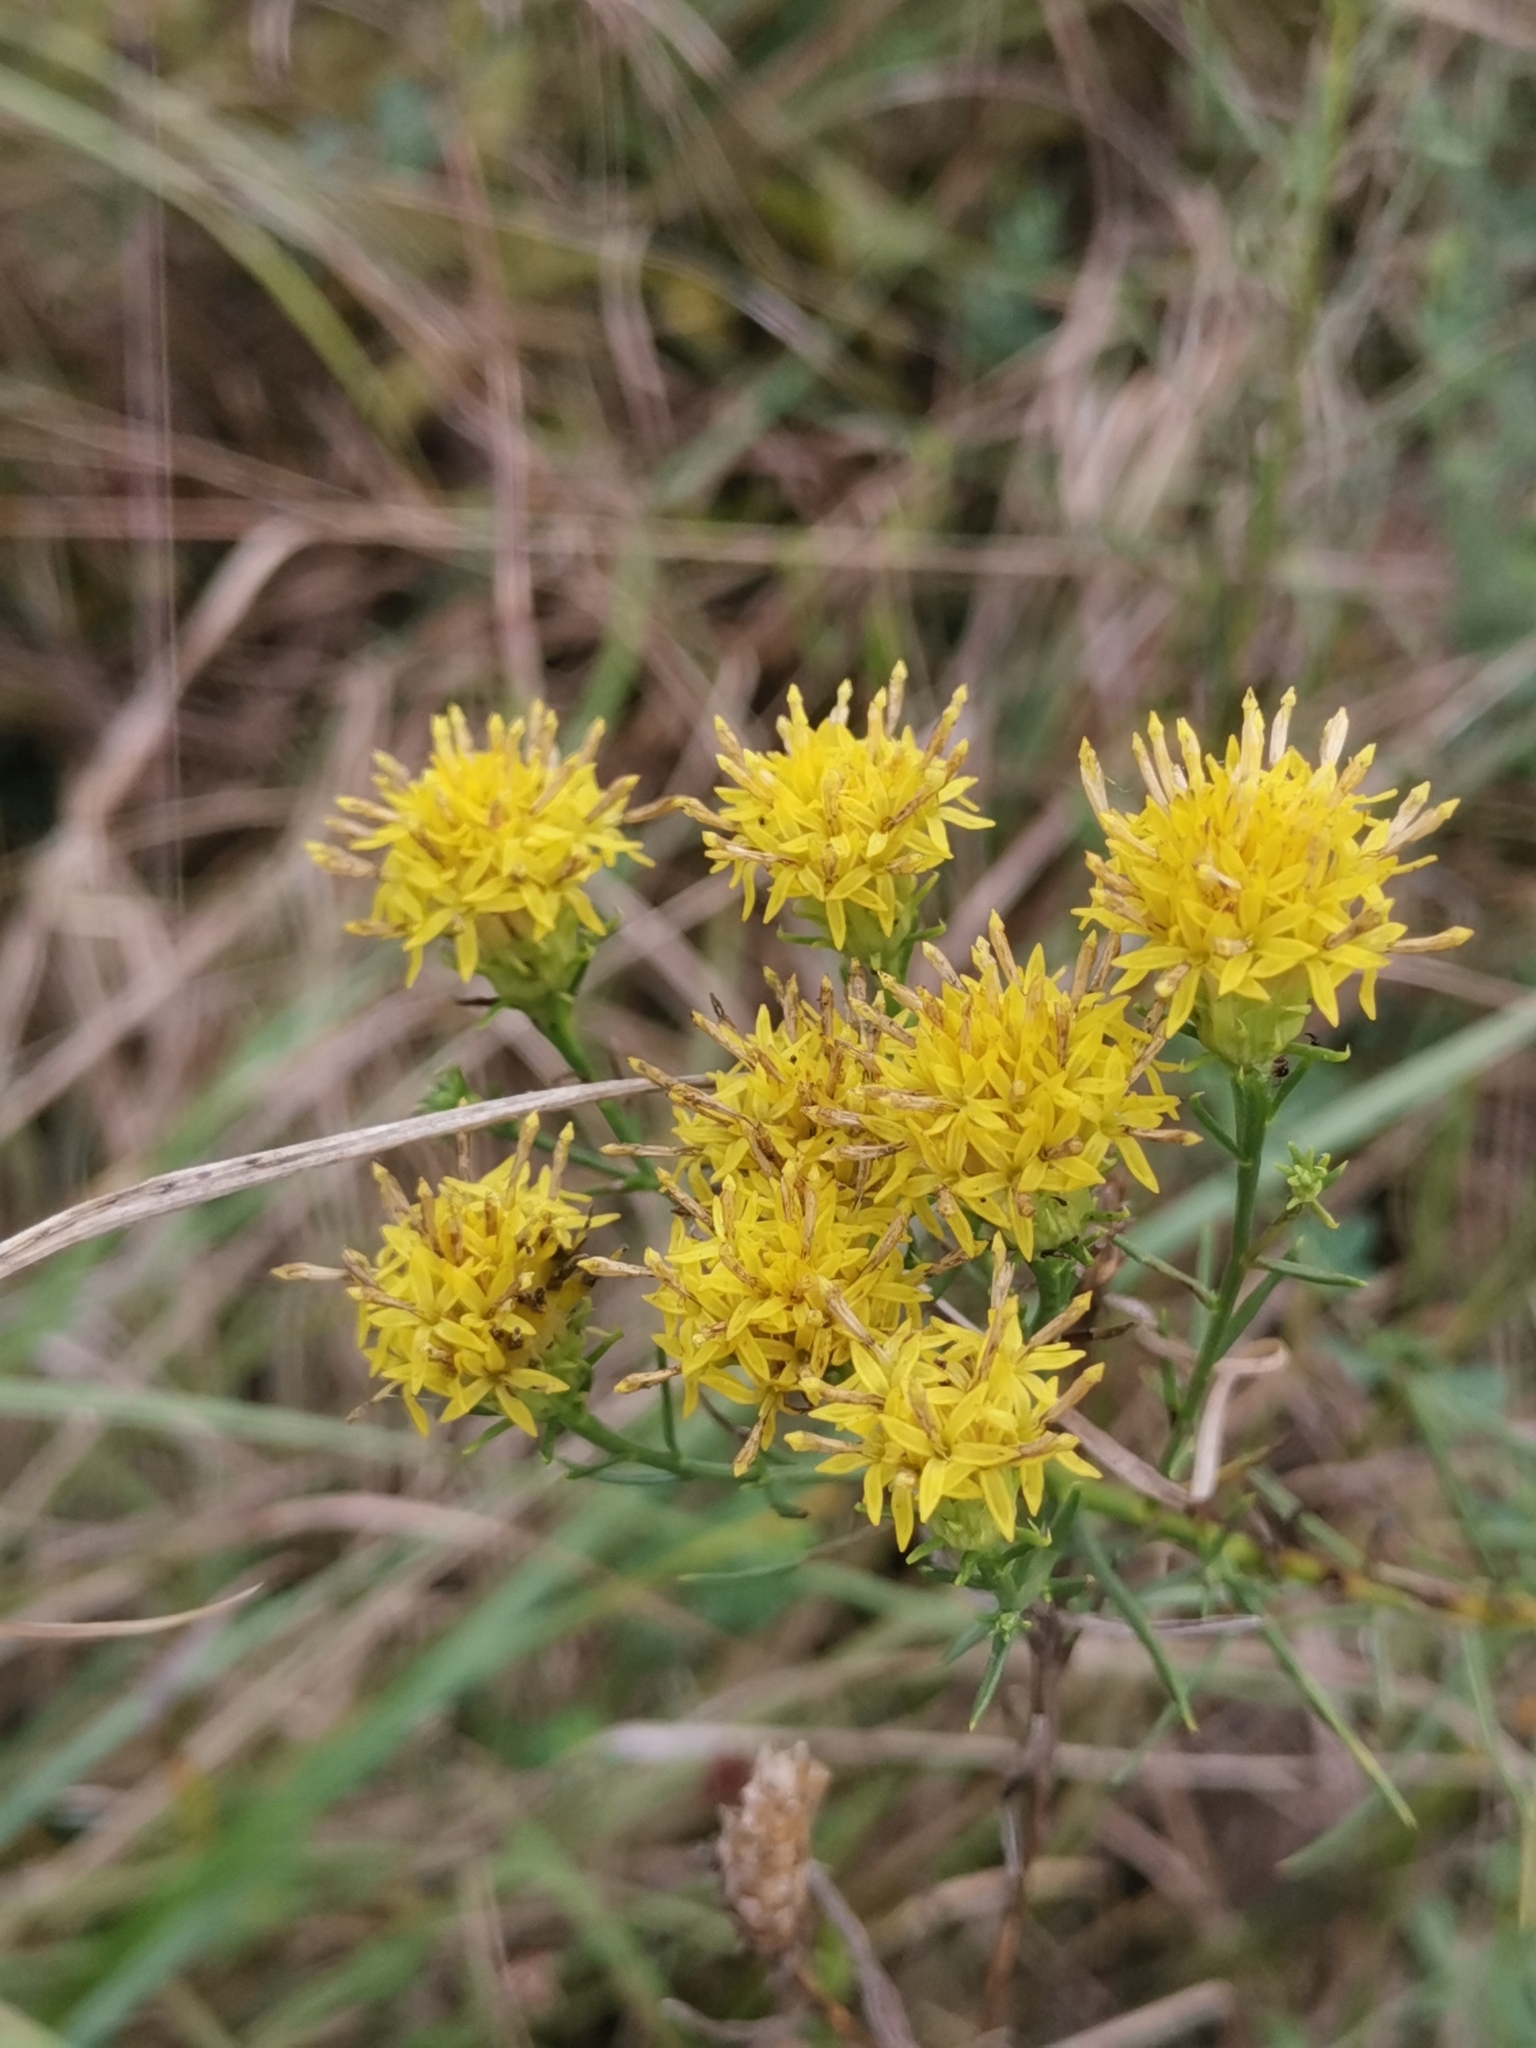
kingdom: Plantae
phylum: Tracheophyta
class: Magnoliopsida
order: Asterales
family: Asteraceae
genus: Galatella
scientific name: Galatella linosyris
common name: Goldilocks aster
